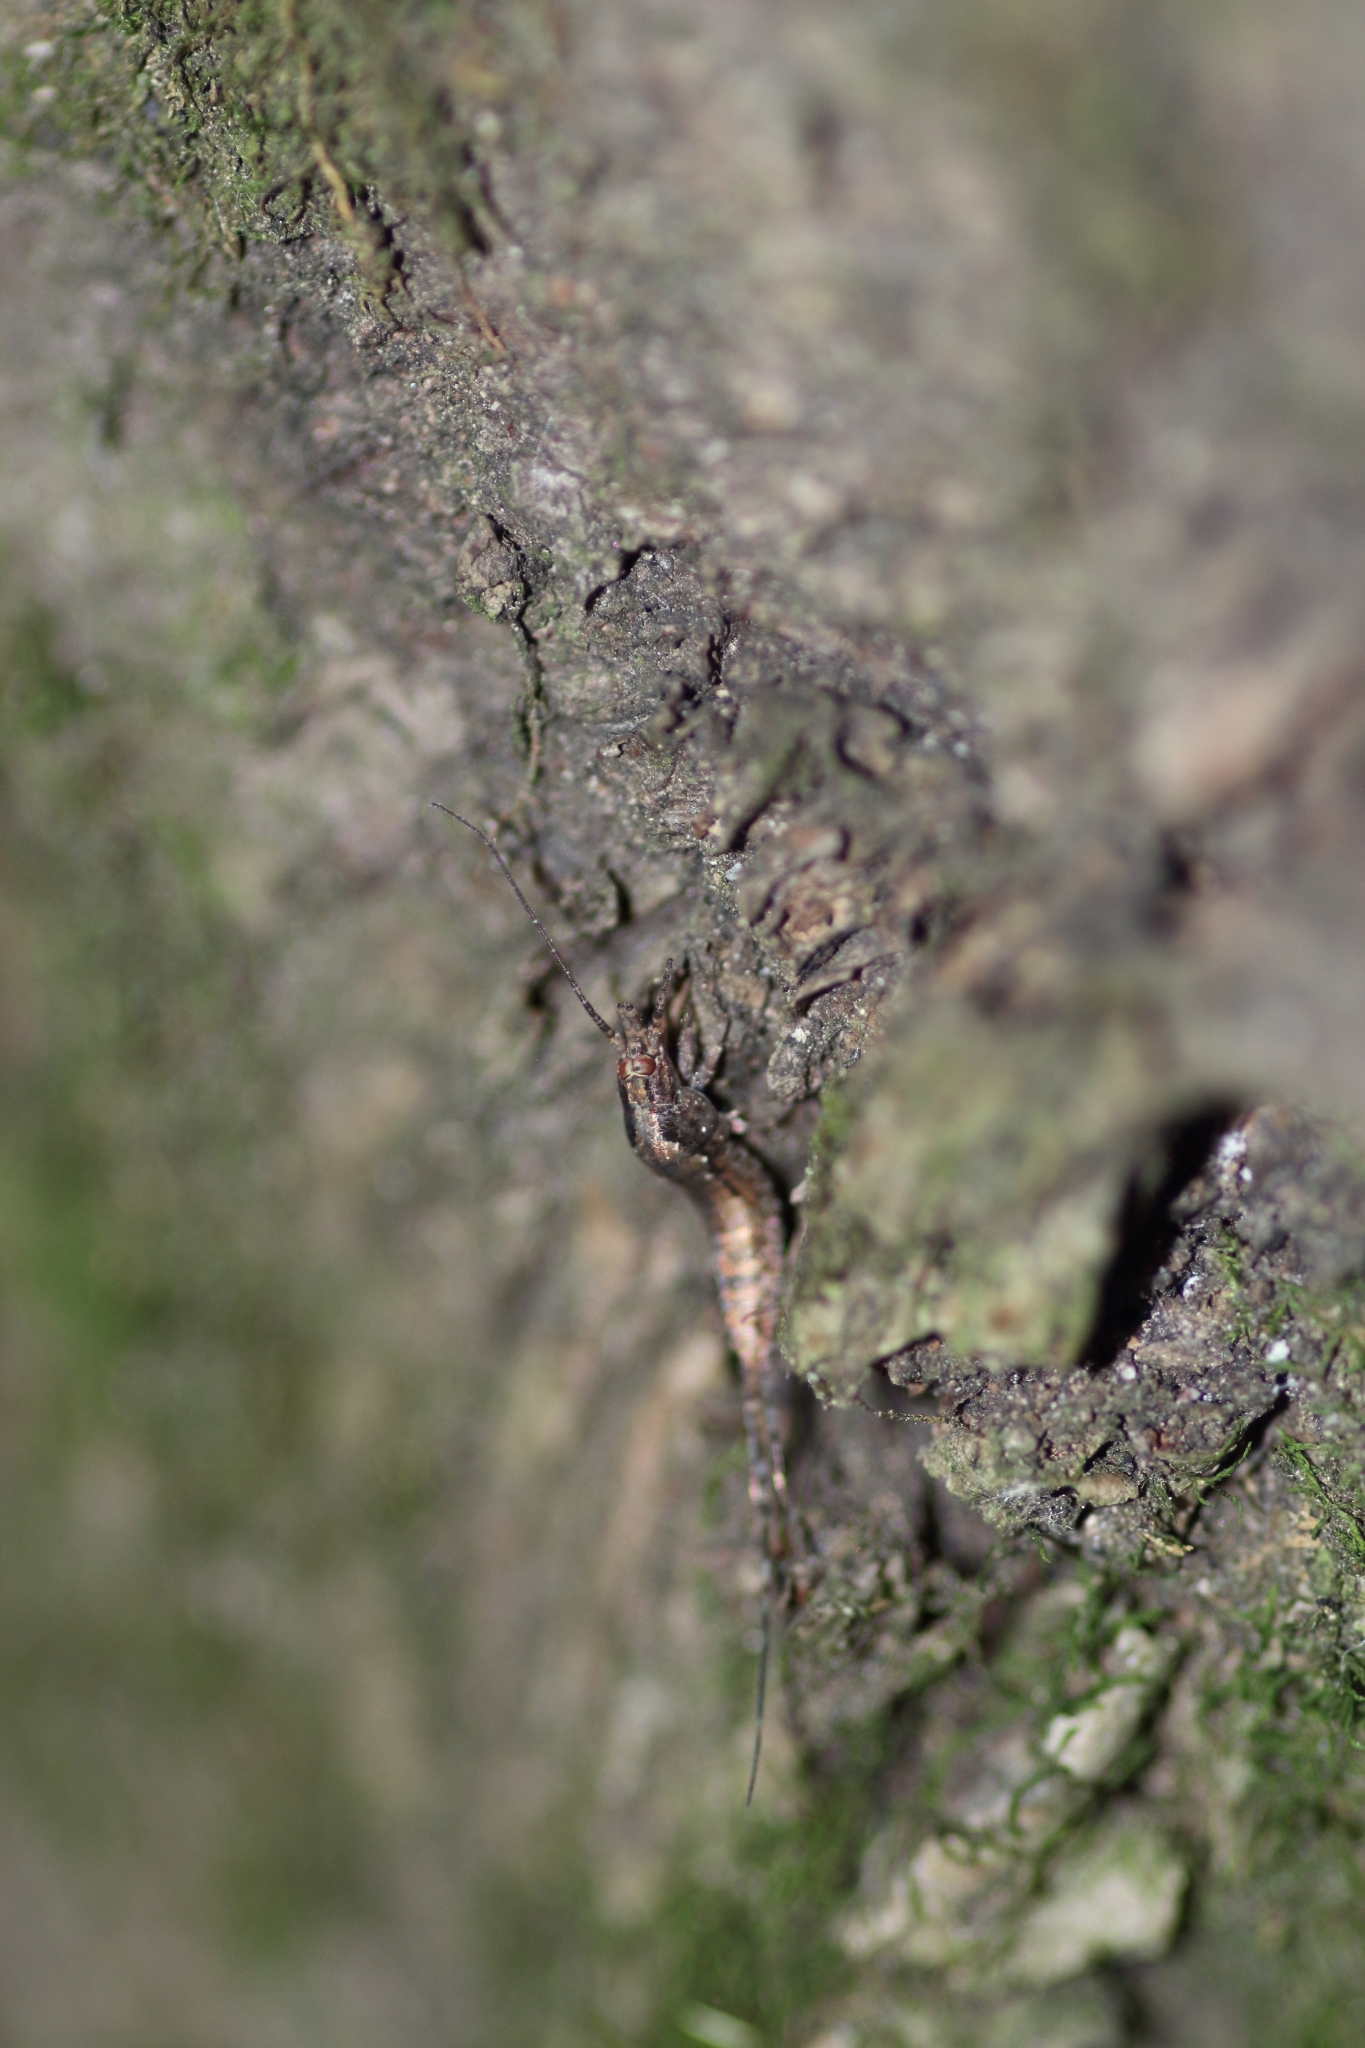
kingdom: Animalia
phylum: Arthropoda
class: Insecta
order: Archaeognatha
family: Machilidae
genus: Lepismachilis
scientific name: Lepismachilis rozsypali
